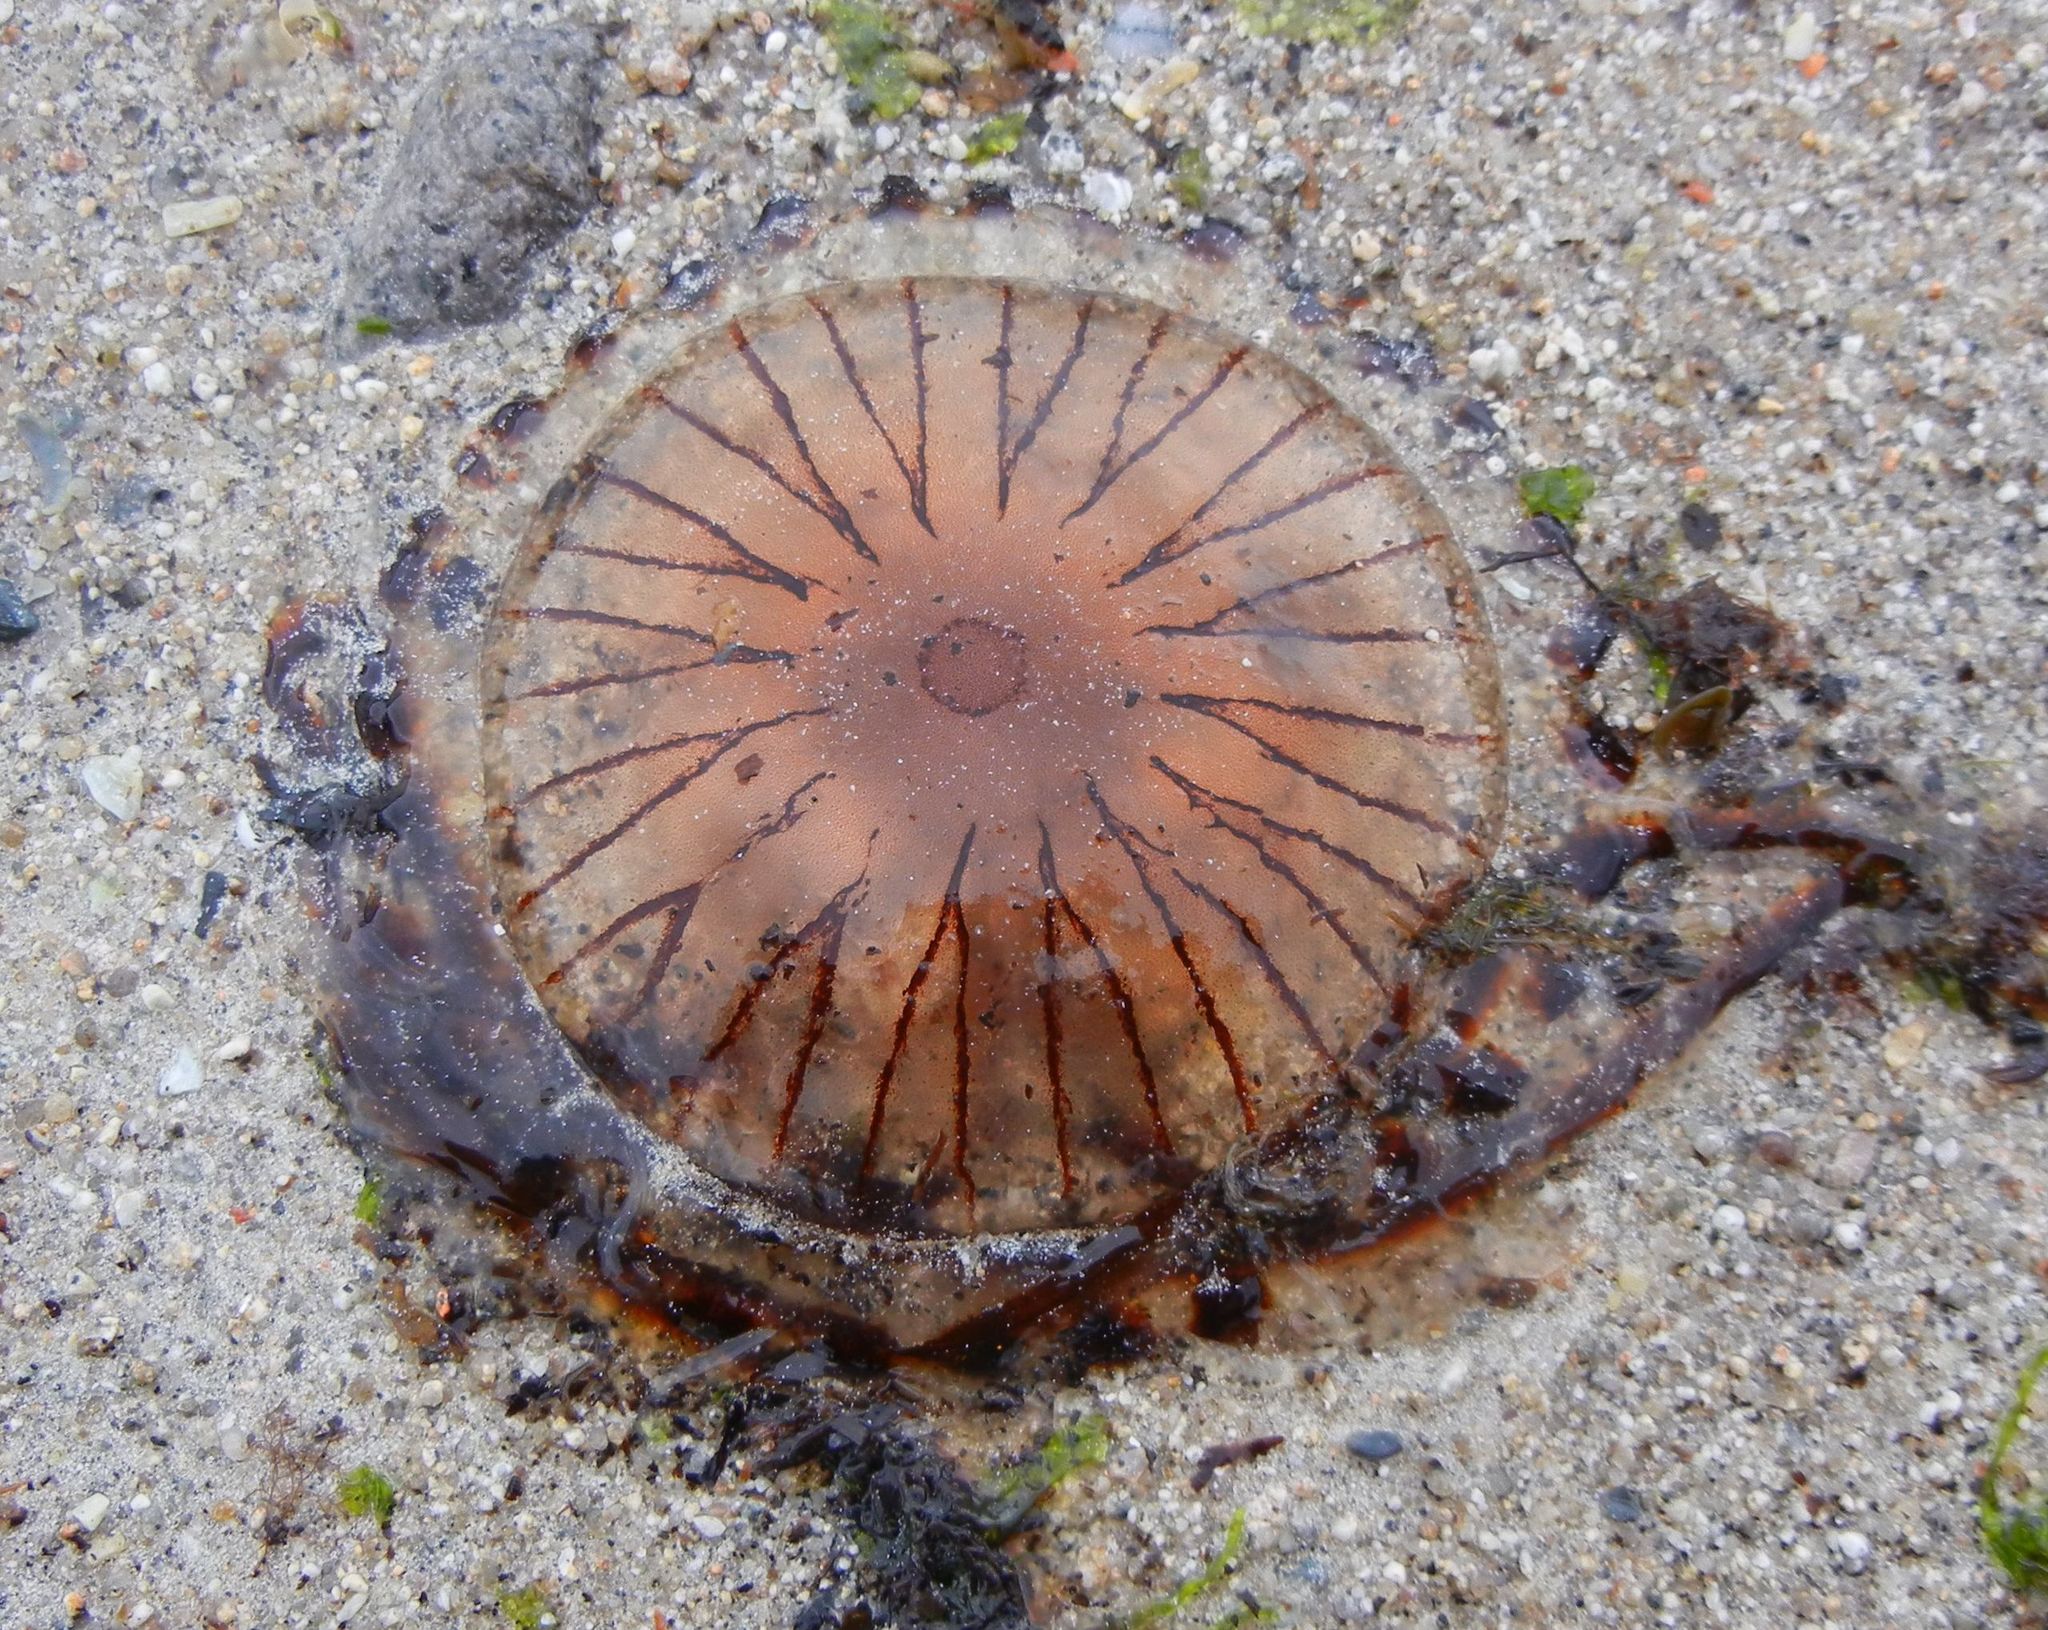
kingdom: Animalia
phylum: Cnidaria
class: Scyphozoa
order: Semaeostomeae
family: Pelagiidae
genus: Chrysaora
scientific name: Chrysaora hysoscella
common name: Compass jellyfish
